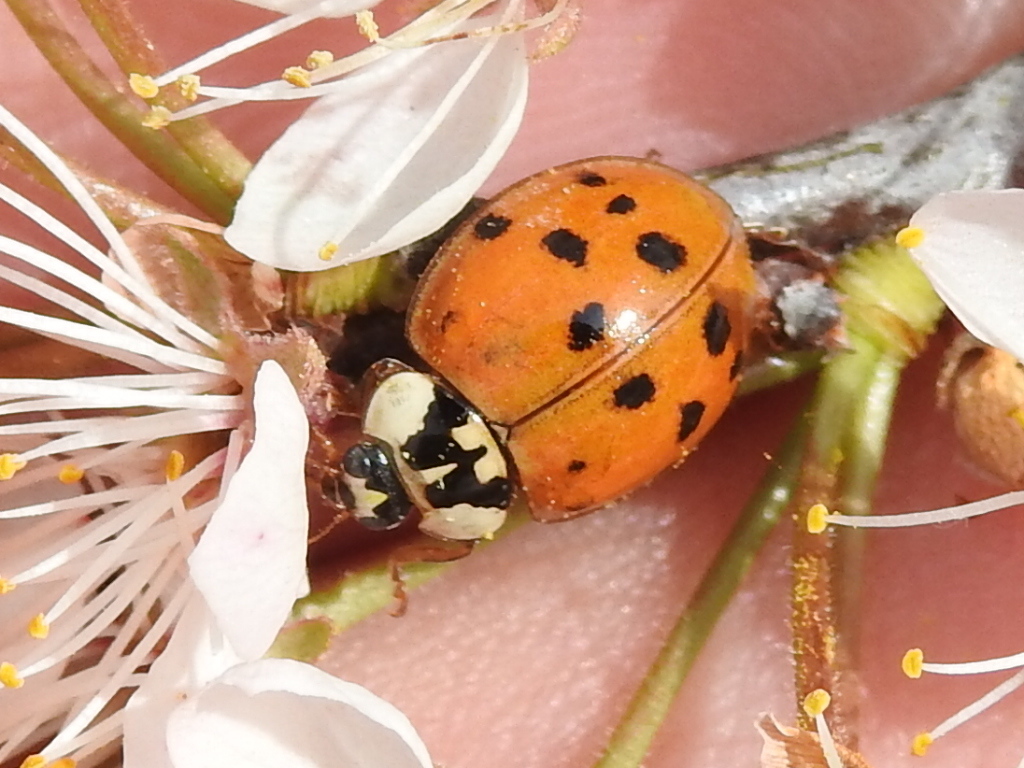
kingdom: Animalia
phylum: Arthropoda
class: Insecta
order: Coleoptera
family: Coccinellidae
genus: Harmonia
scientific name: Harmonia axyridis
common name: Harlequin ladybird
